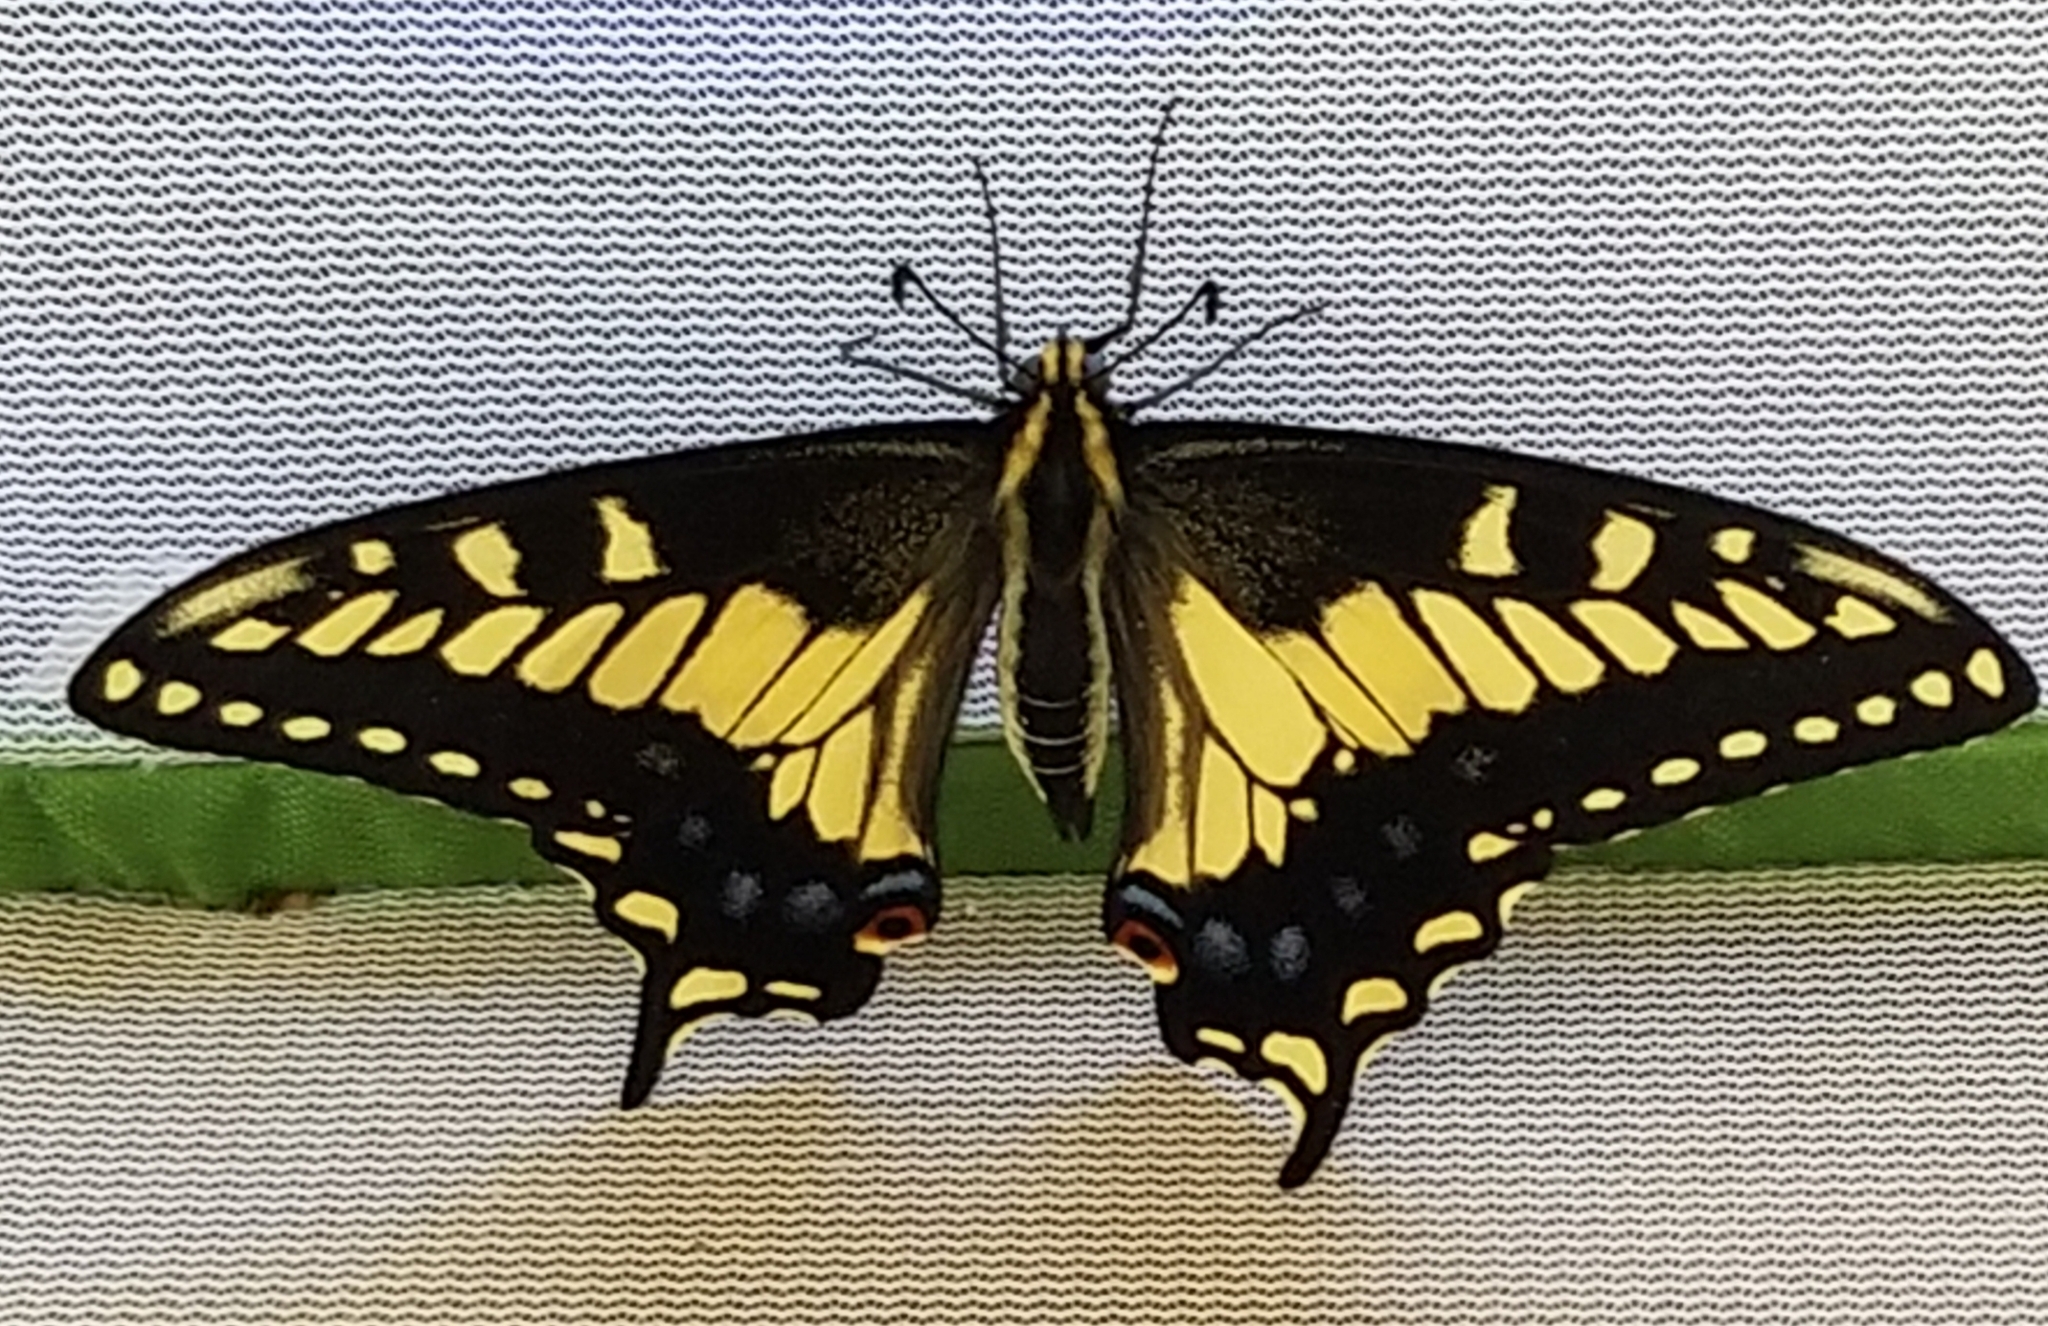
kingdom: Animalia
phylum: Arthropoda
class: Insecta
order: Lepidoptera
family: Papilionidae
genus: Papilio
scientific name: Papilio zelicaon
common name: Anise swallowtail
